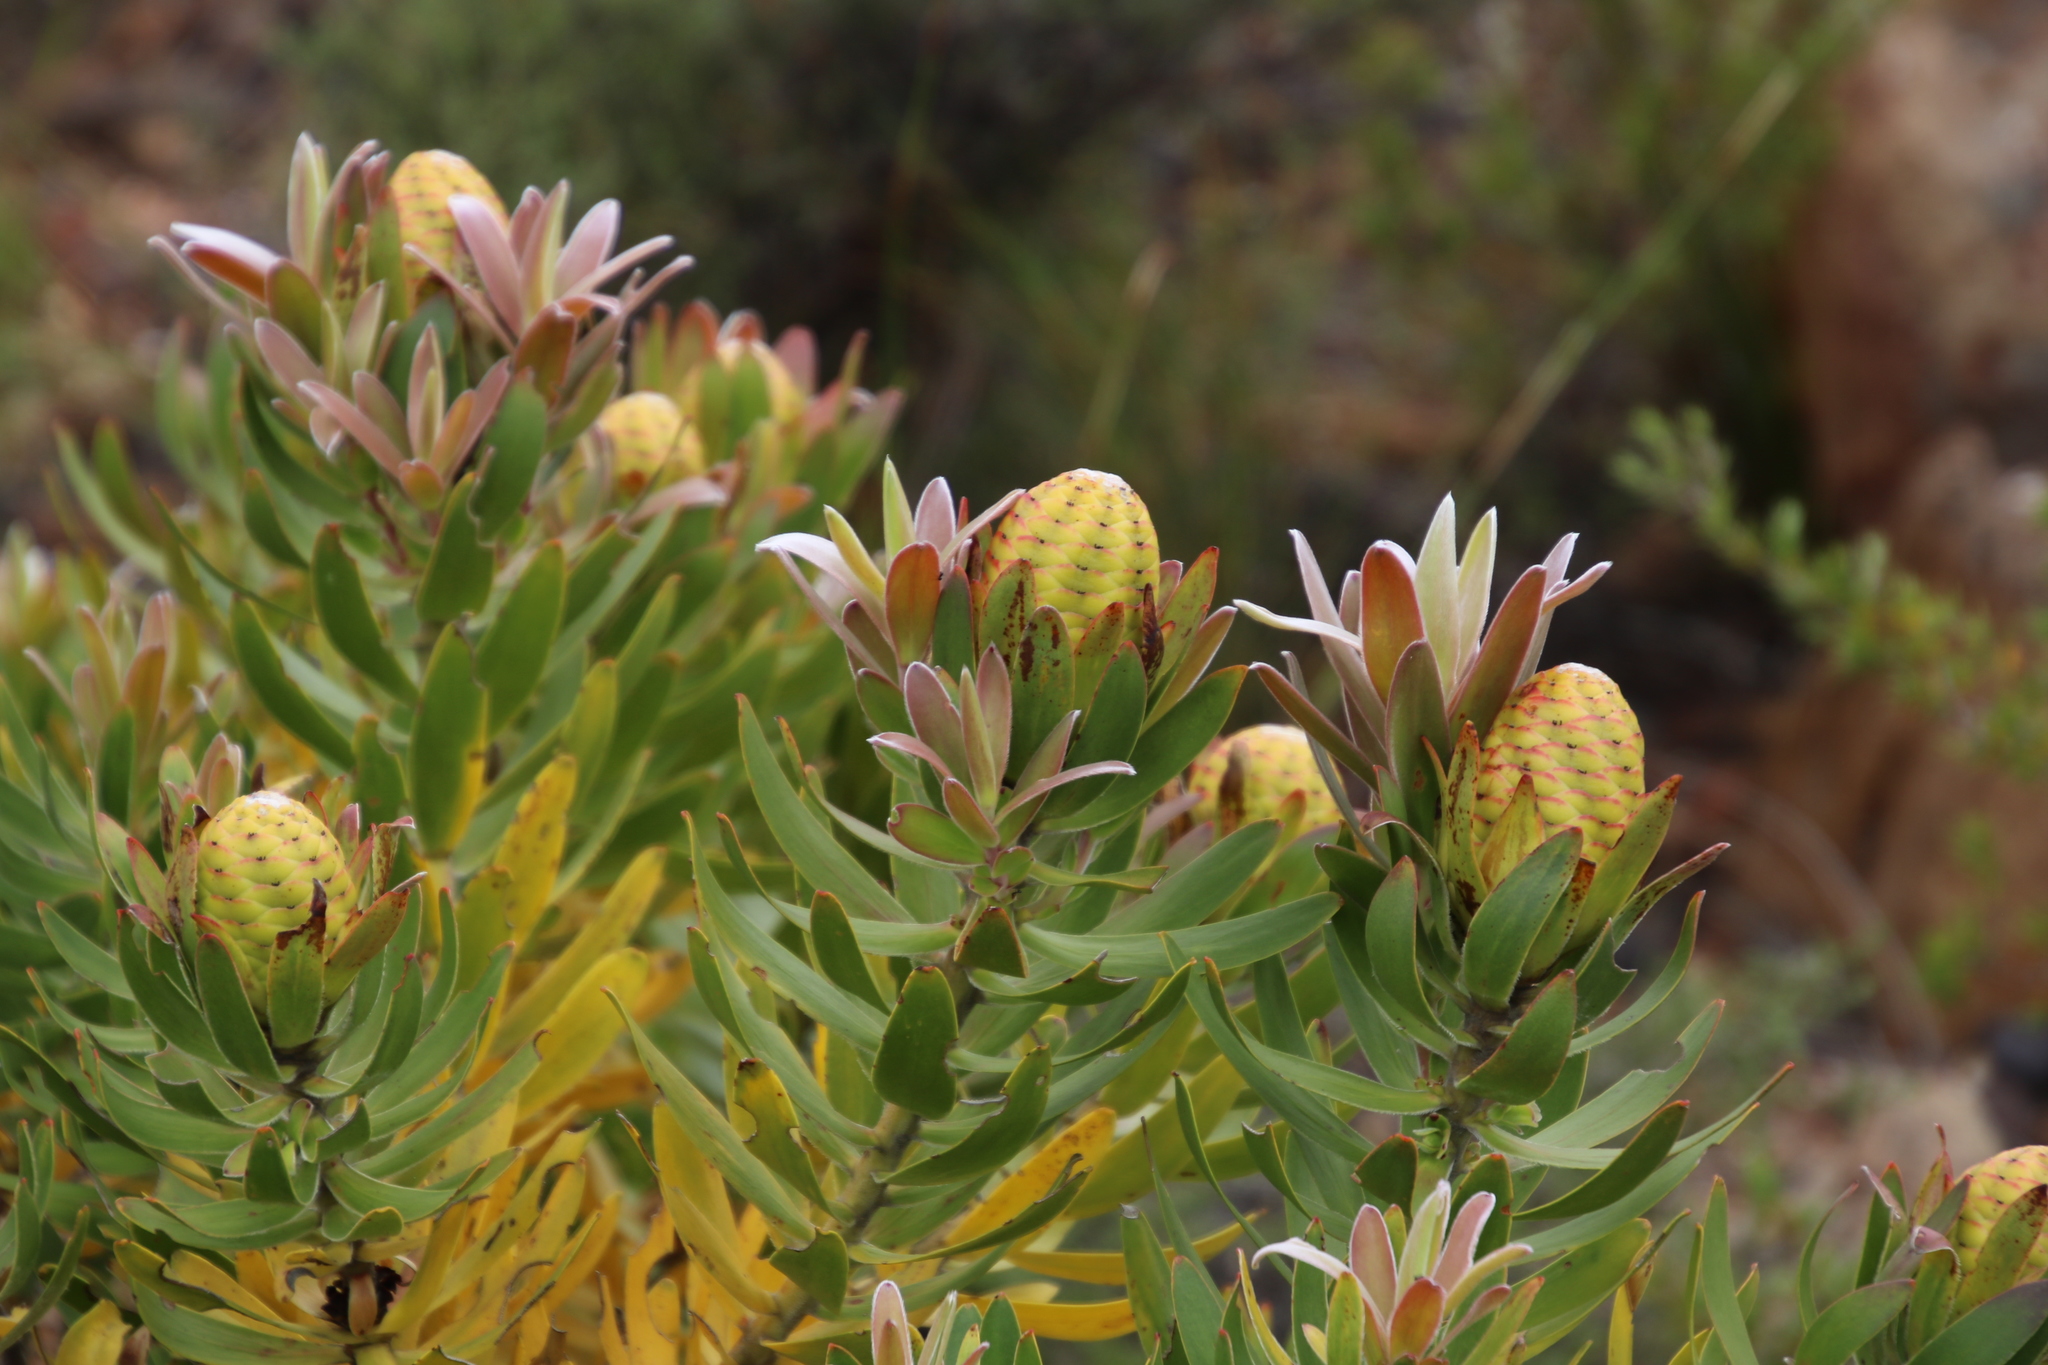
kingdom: Plantae
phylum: Tracheophyta
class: Magnoliopsida
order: Proteales
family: Proteaceae
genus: Leucadendron
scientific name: Leucadendron
